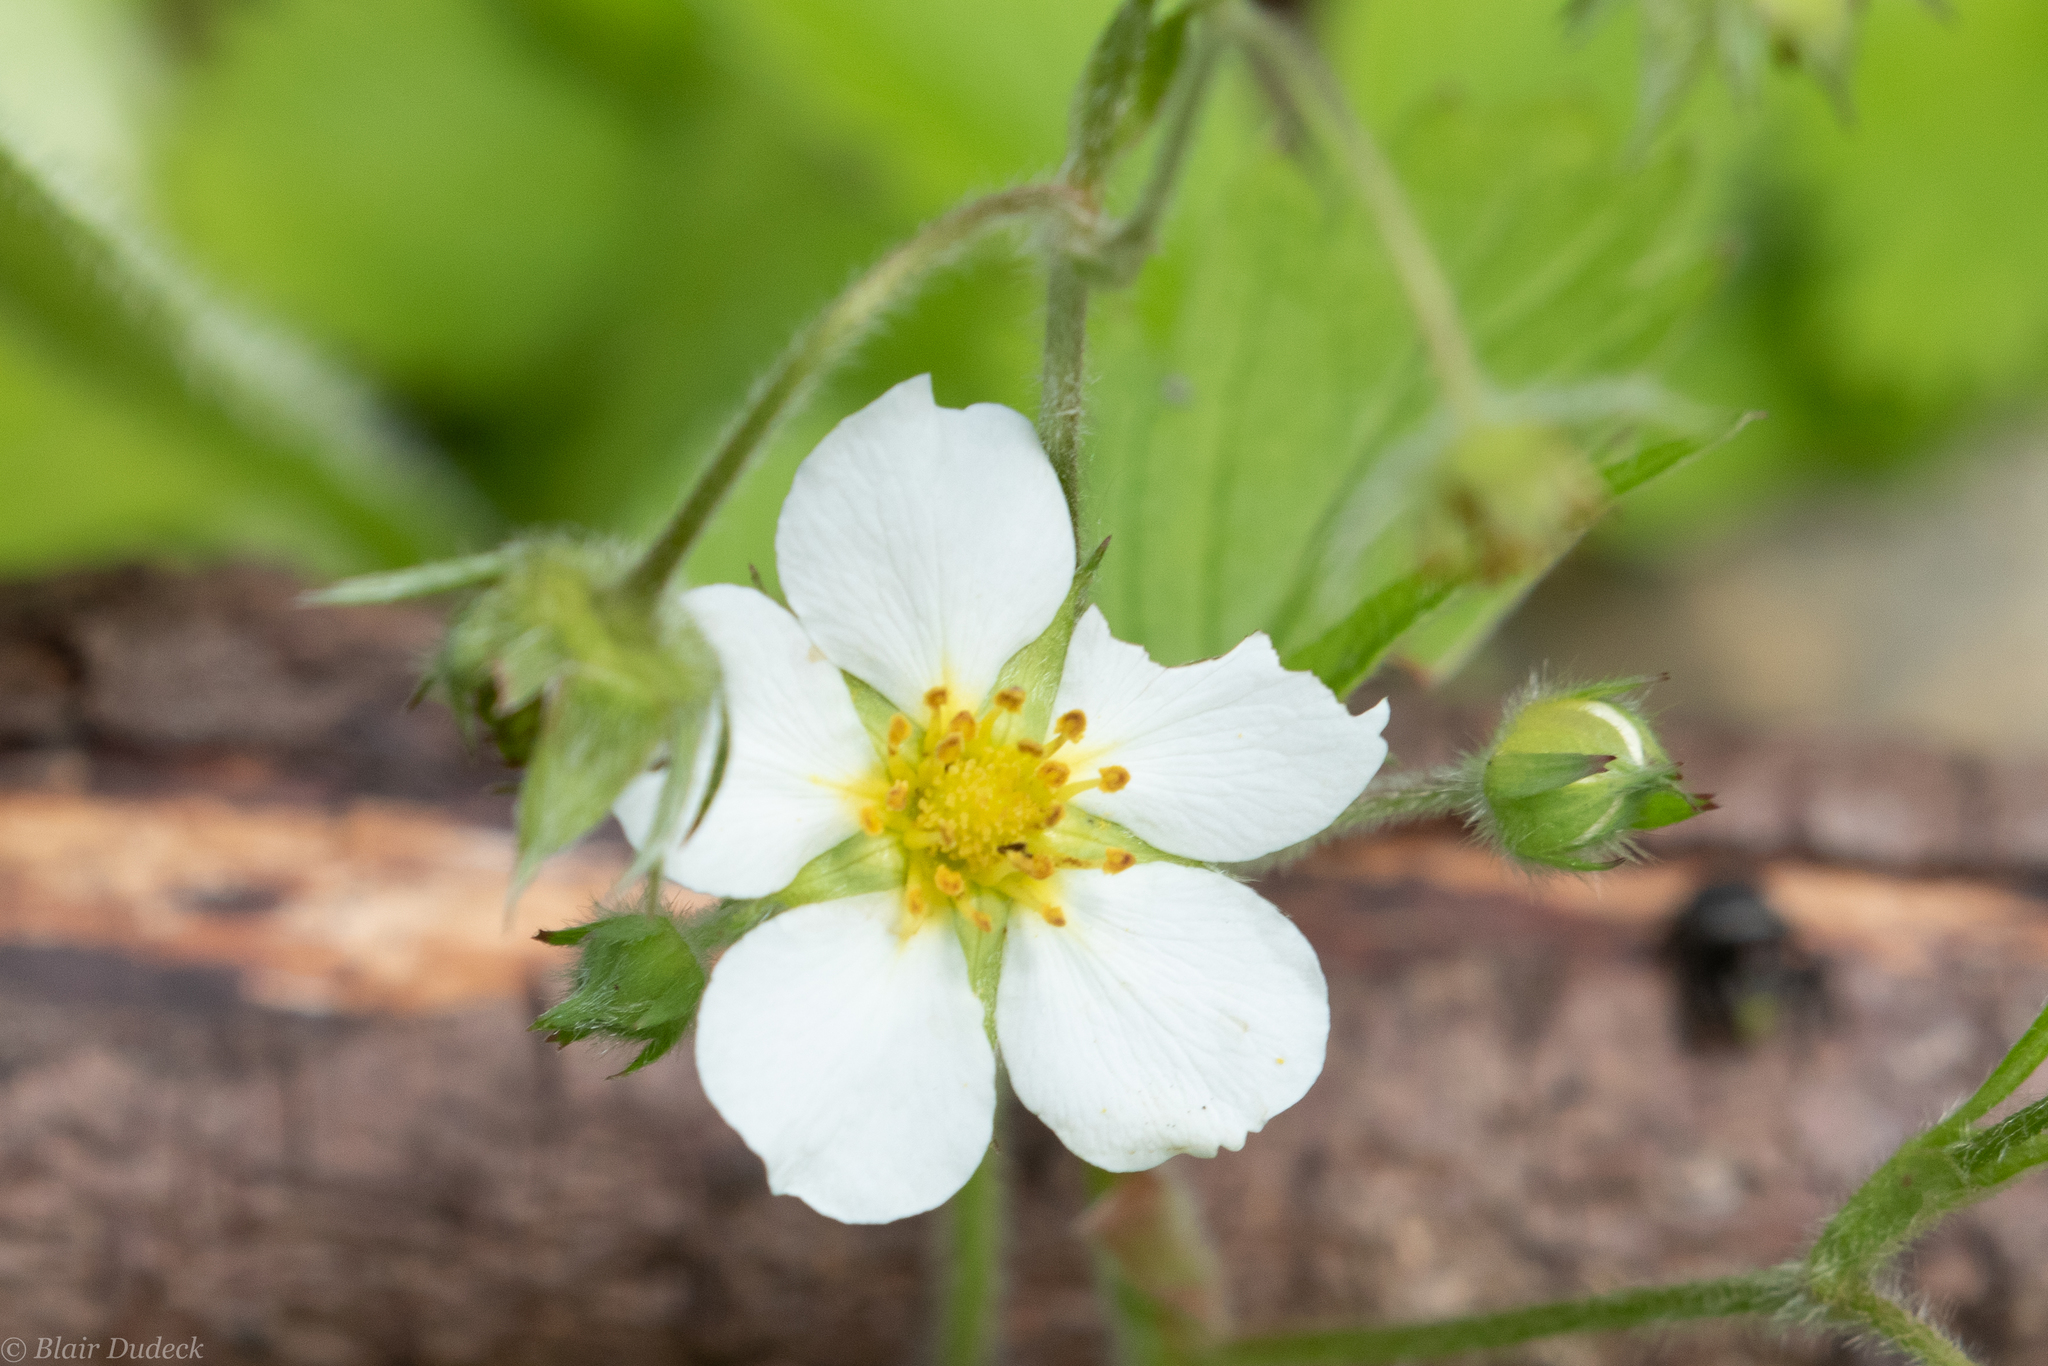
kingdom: Plantae
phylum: Tracheophyta
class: Magnoliopsida
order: Rosales
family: Rosaceae
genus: Fragaria
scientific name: Fragaria vesca
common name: Wild strawberry
